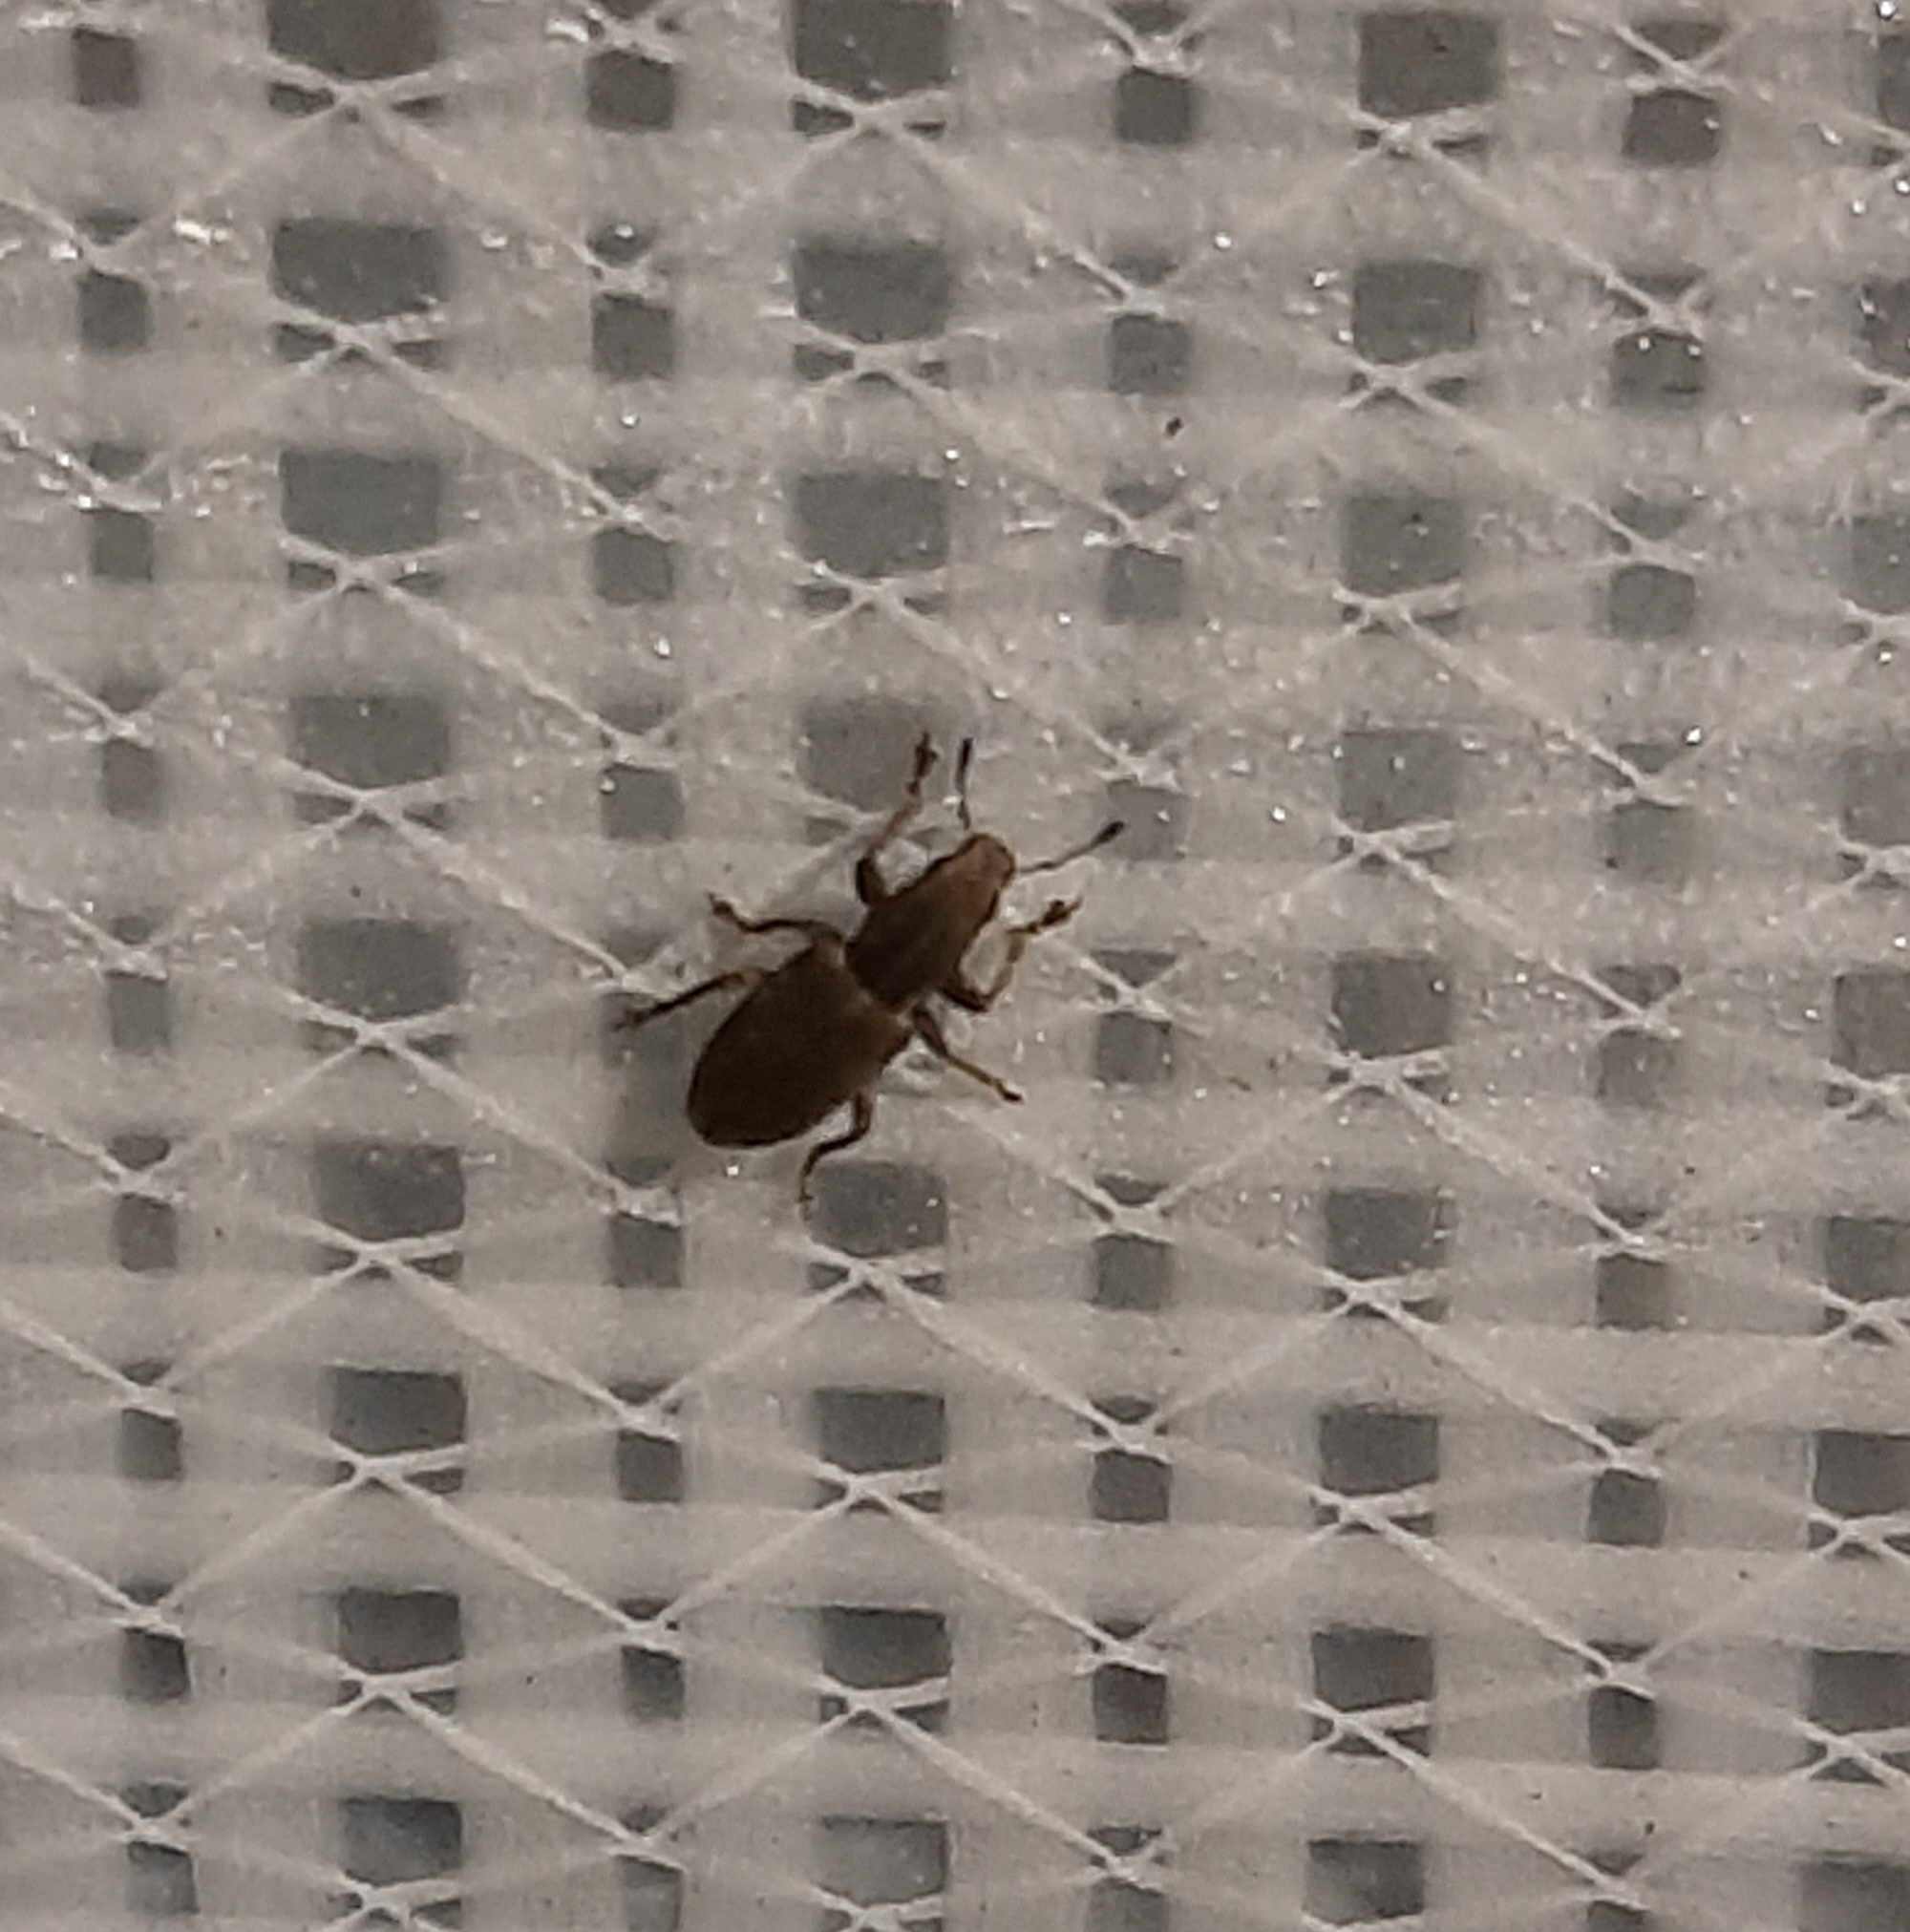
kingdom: Animalia
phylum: Arthropoda
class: Insecta
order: Coleoptera
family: Curculionidae
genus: Sitona
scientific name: Sitona obsoletus
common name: Weevil
